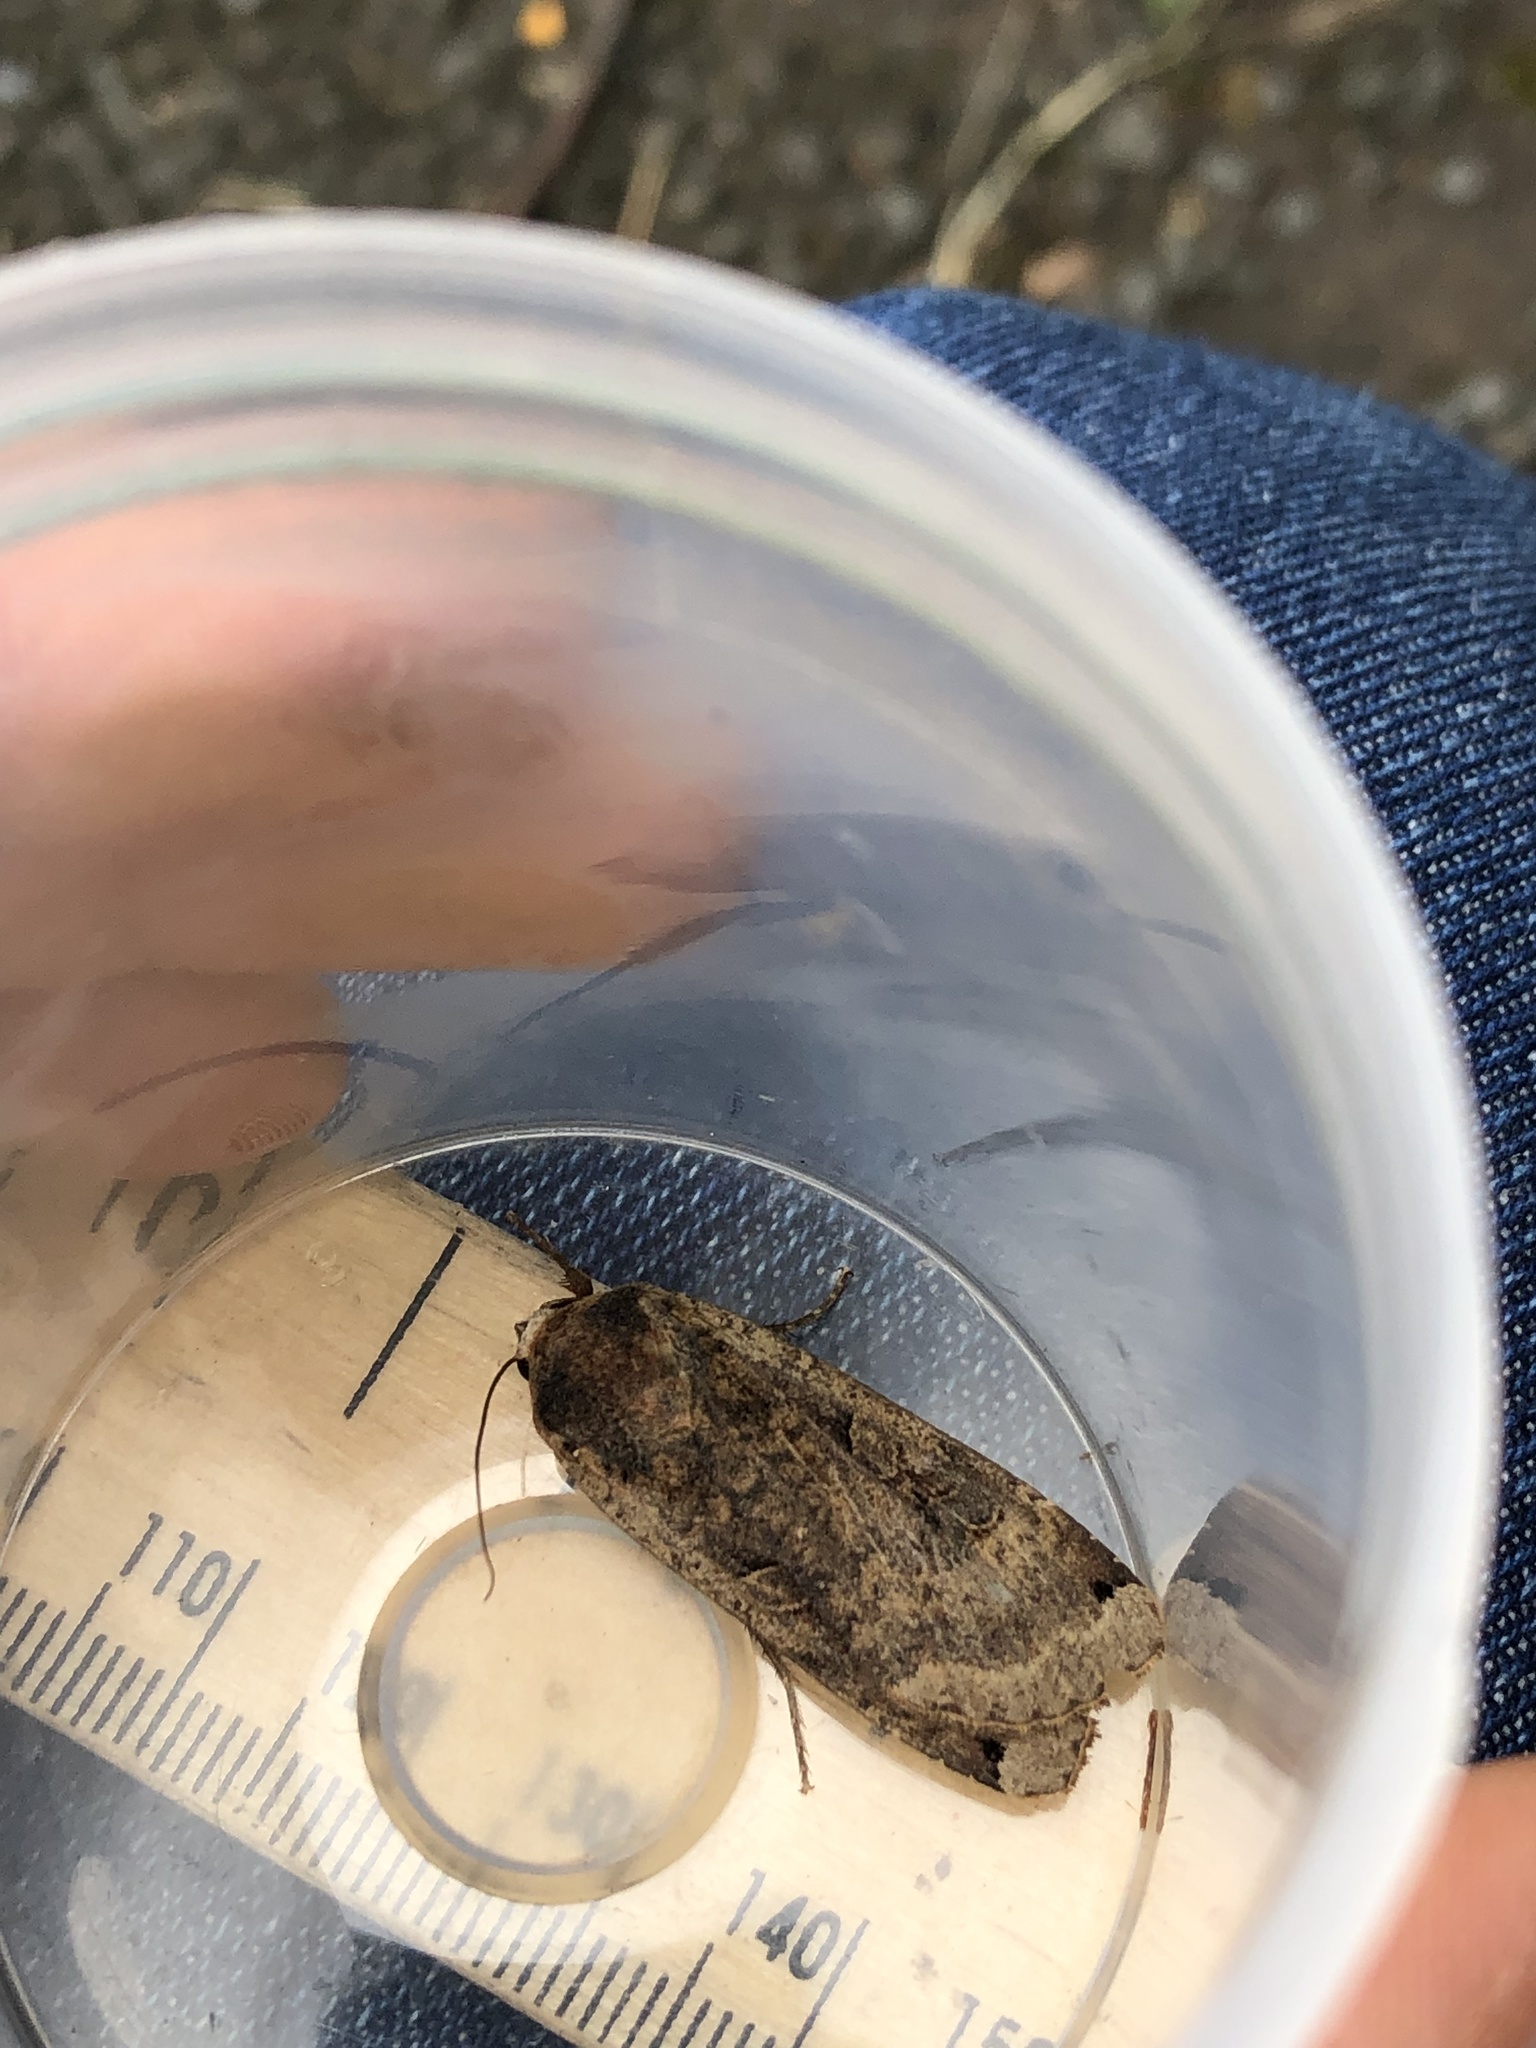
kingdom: Animalia
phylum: Arthropoda
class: Insecta
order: Lepidoptera
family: Noctuidae
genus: Noctua
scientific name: Noctua pronuba
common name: Large yellow underwing
